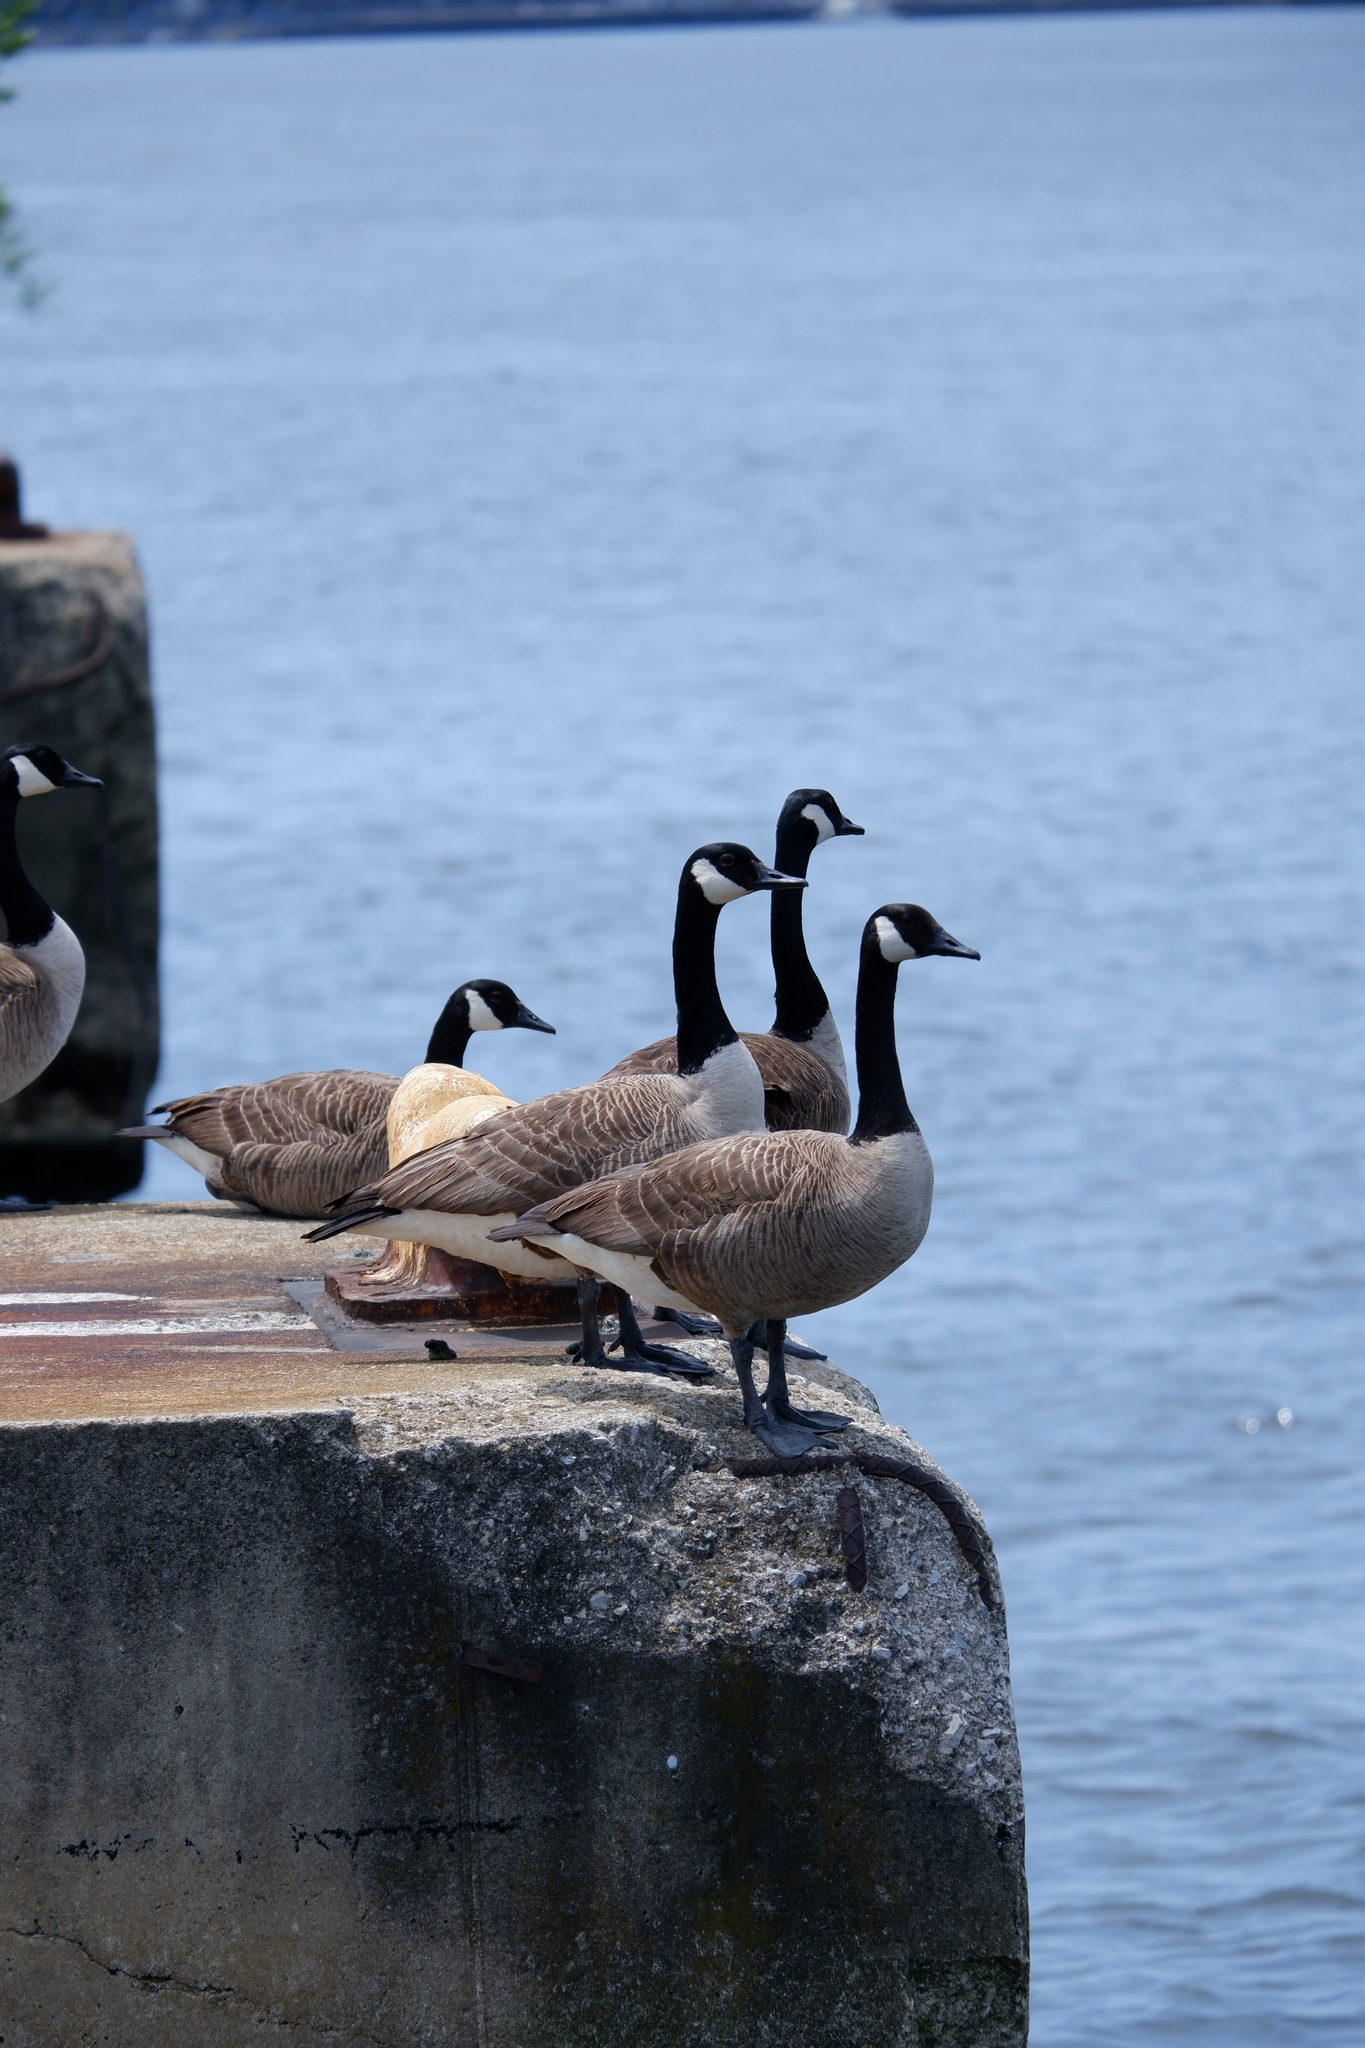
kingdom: Animalia
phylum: Chordata
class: Aves
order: Anseriformes
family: Anatidae
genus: Branta
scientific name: Branta canadensis
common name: Canada goose
